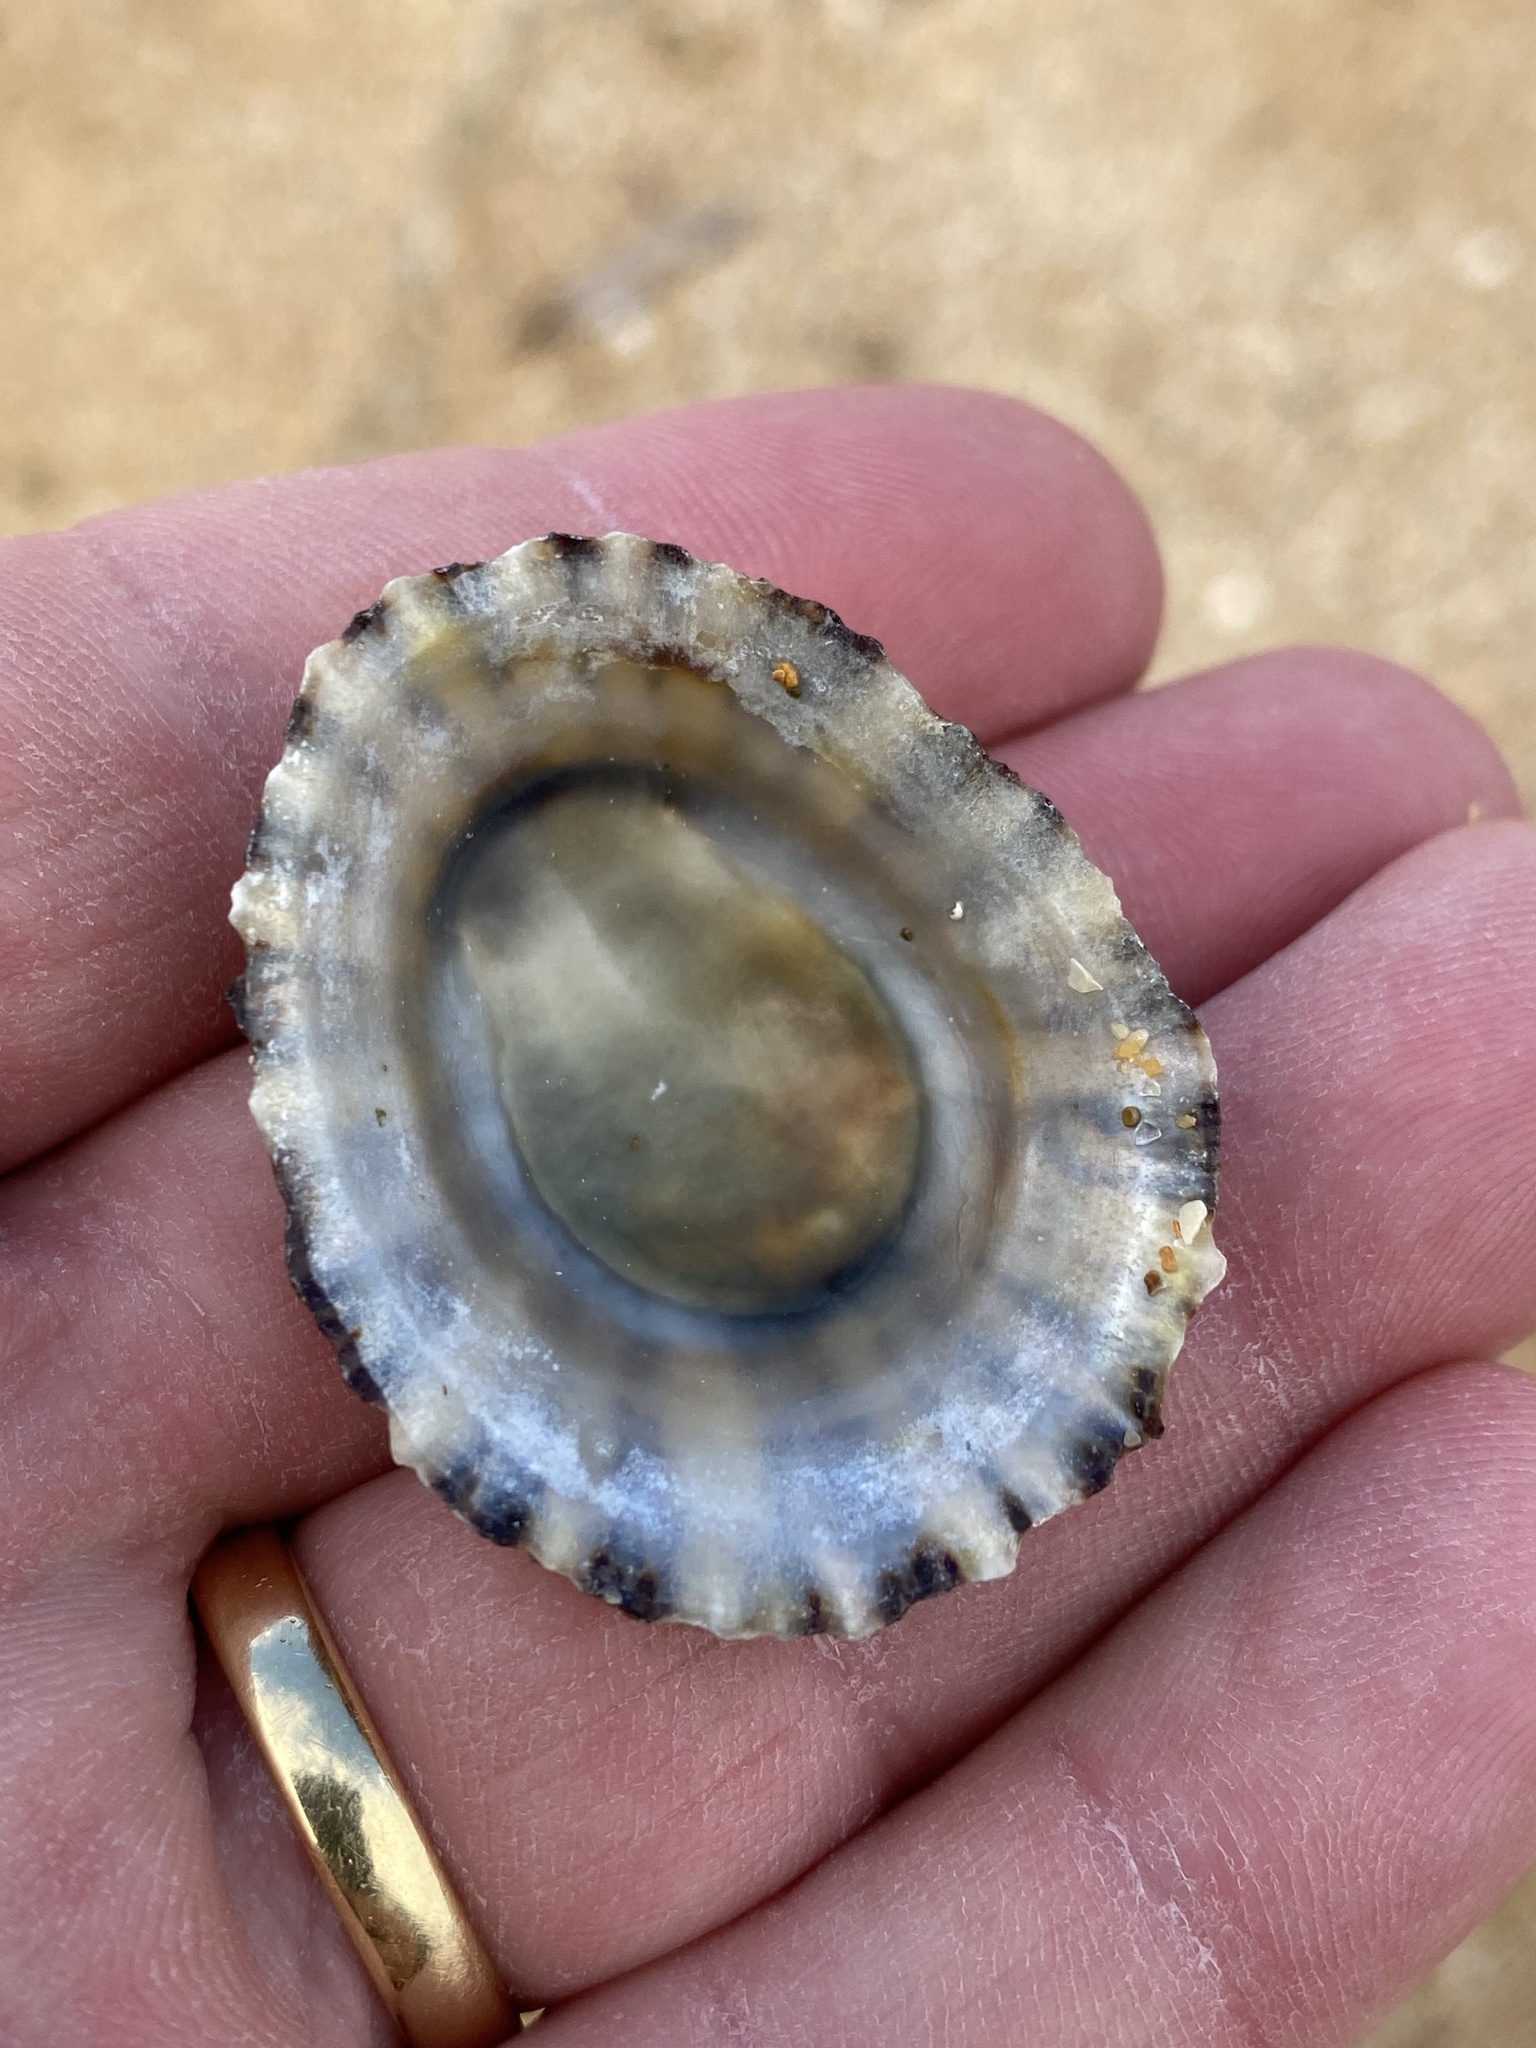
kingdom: Animalia
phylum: Mollusca
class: Gastropoda
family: Nacellidae
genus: Cellana
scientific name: Cellana tramoserica
